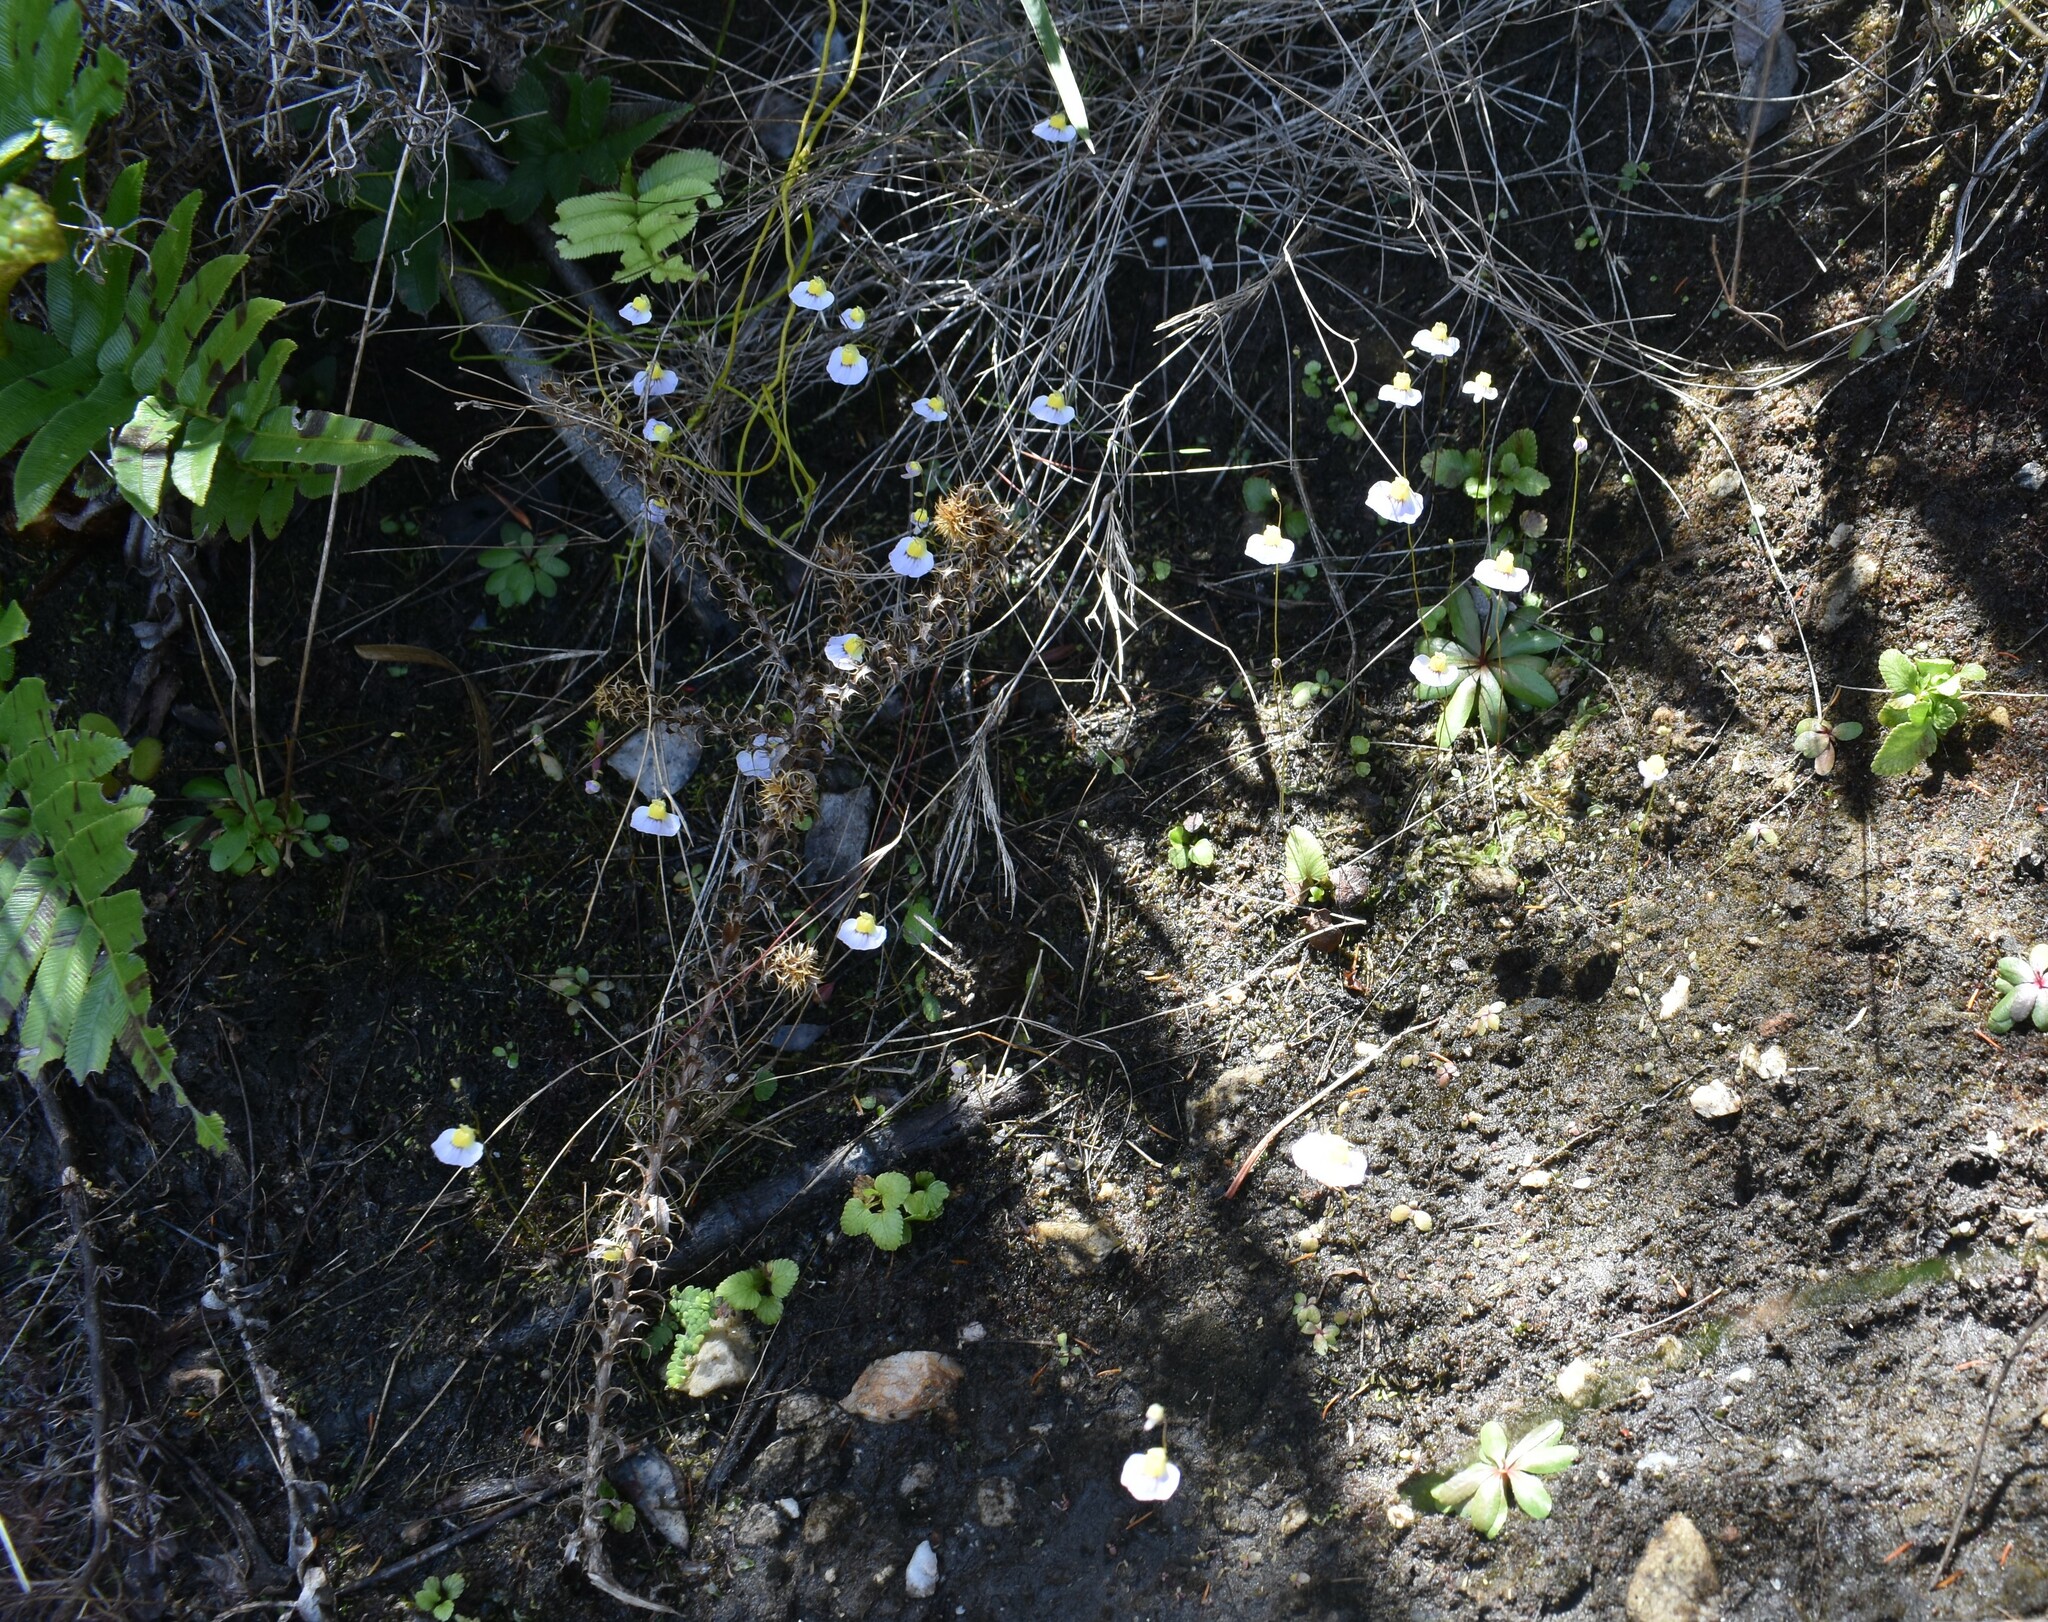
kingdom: Plantae
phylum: Tracheophyta
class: Magnoliopsida
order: Lamiales
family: Lentibulariaceae
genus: Utricularia
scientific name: Utricularia bisquamata
